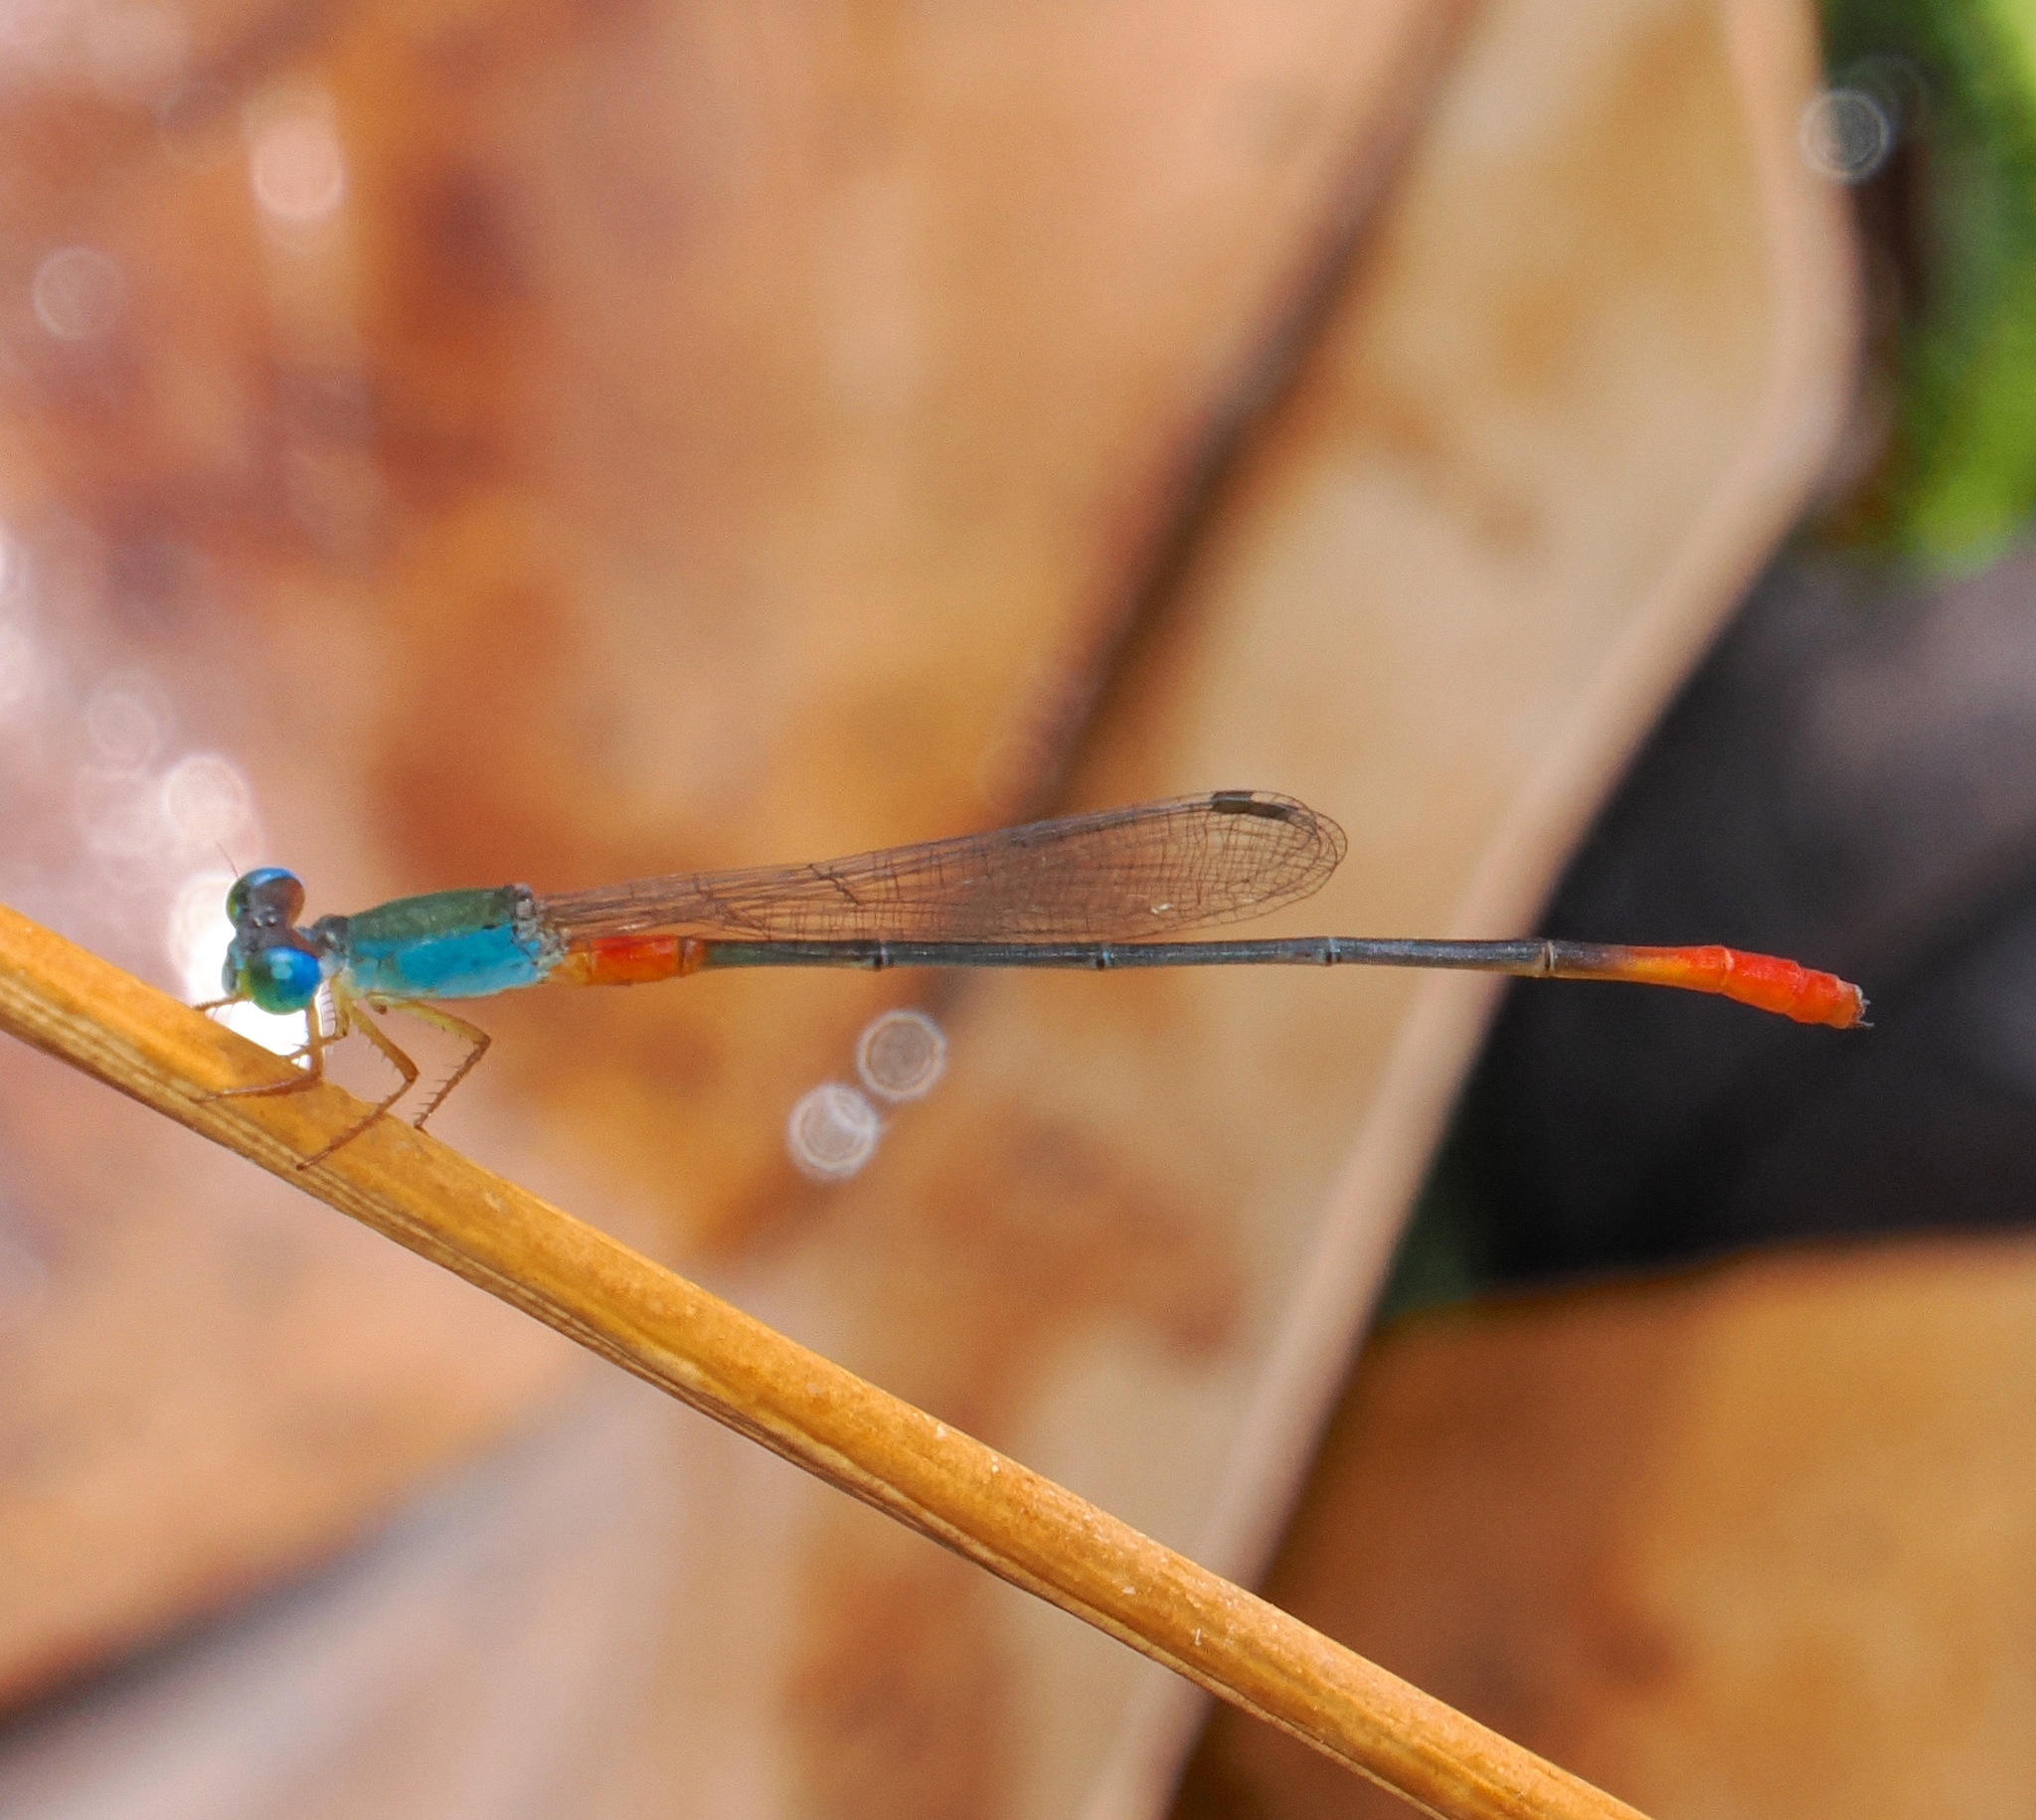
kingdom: Animalia
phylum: Arthropoda
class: Insecta
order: Odonata
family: Coenagrionidae
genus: Ceriagrion
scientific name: Ceriagrion cerinorubellum
